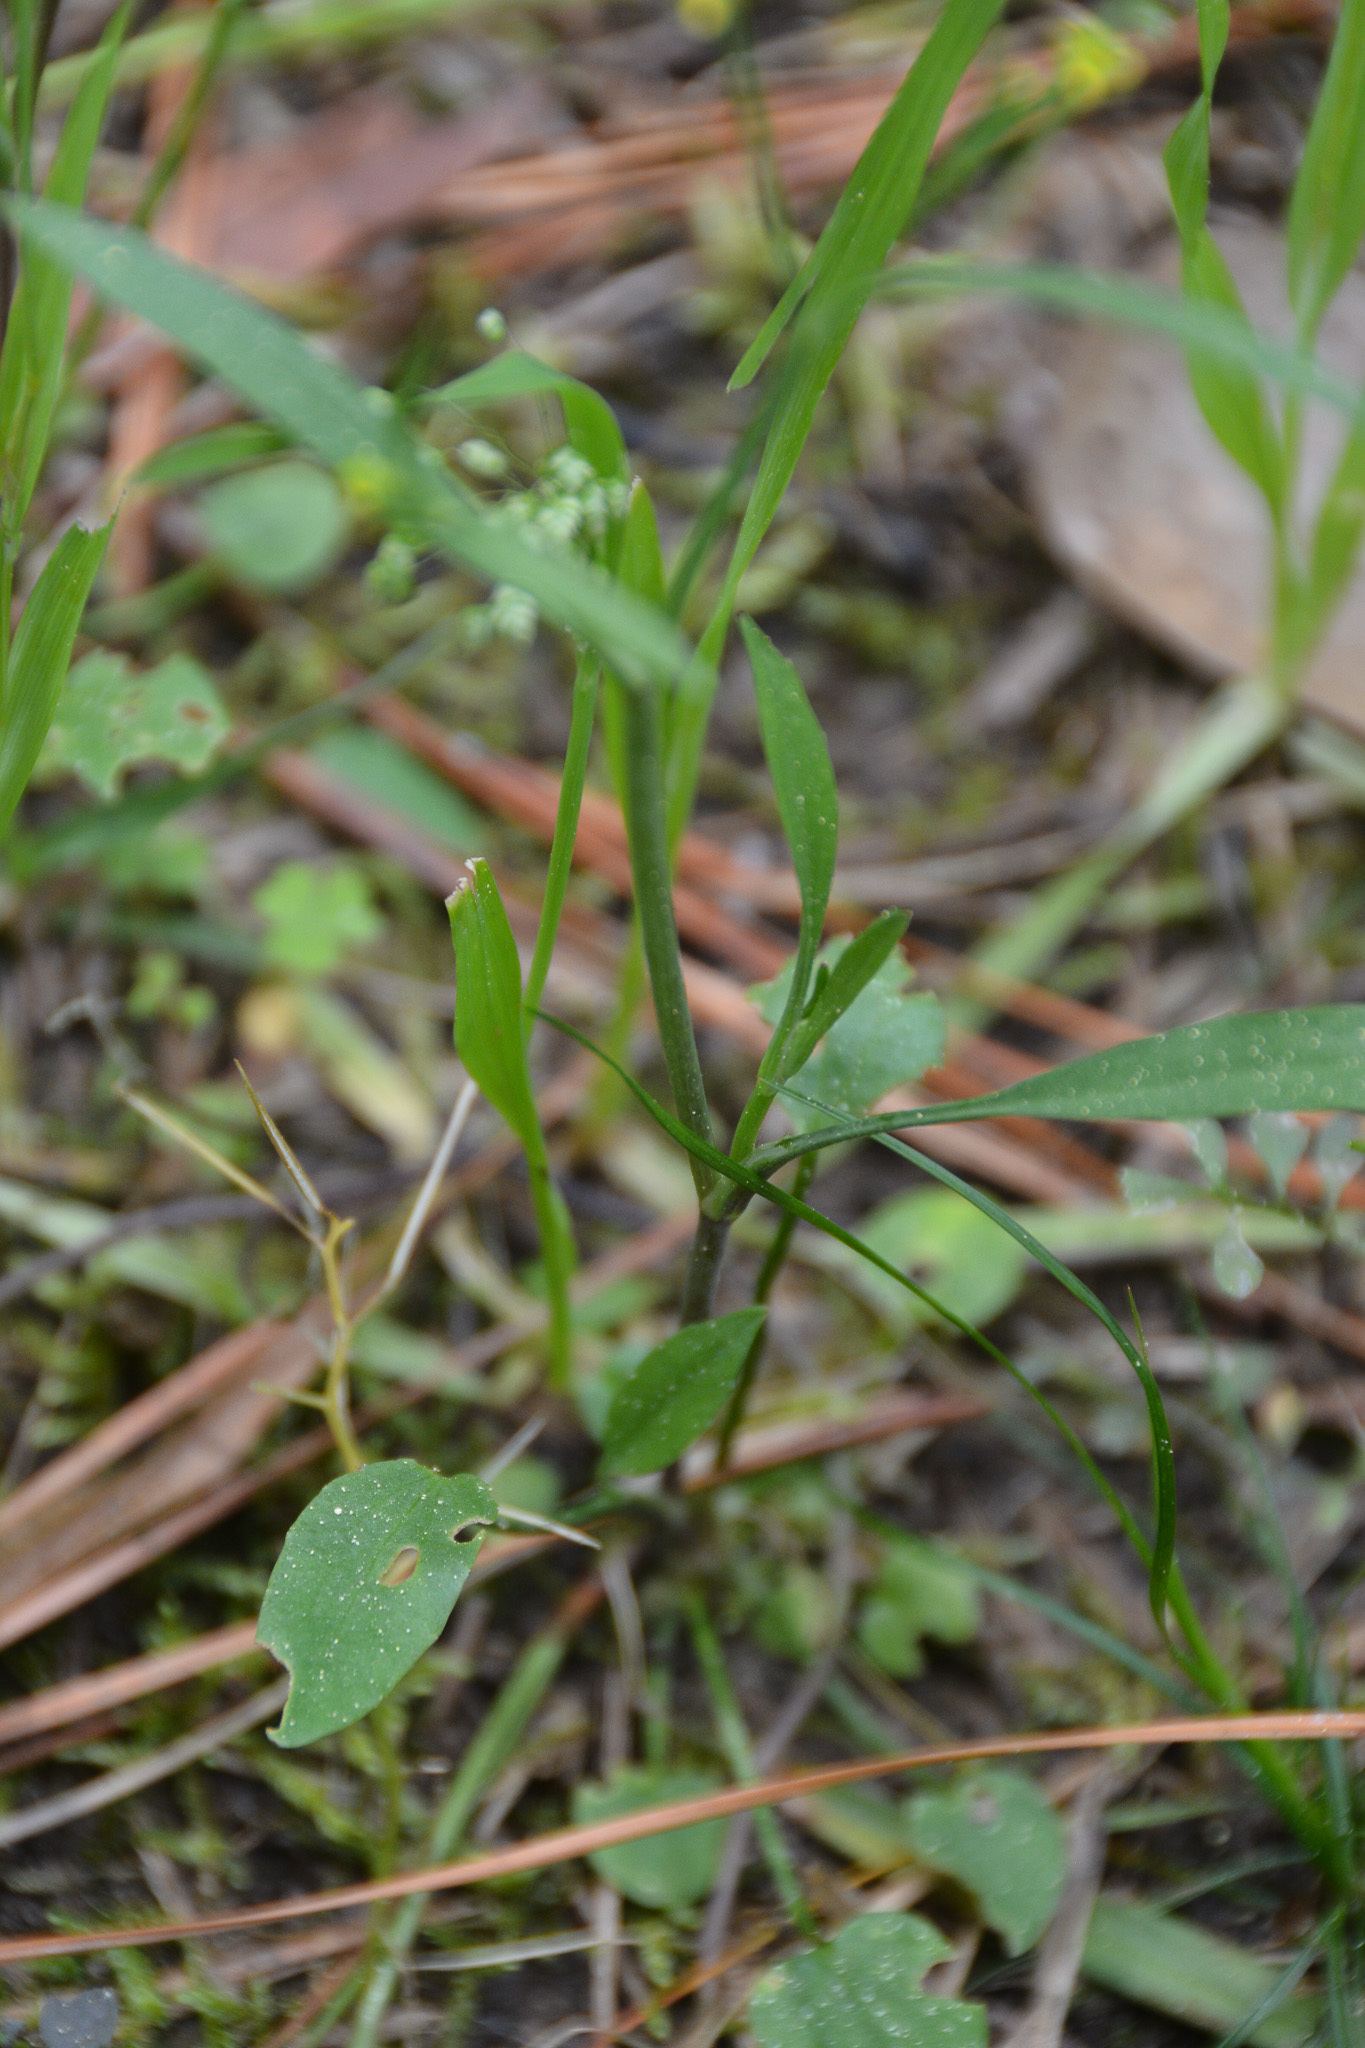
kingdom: Plantae
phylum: Tracheophyta
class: Magnoliopsida
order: Ranunculales
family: Ranunculaceae
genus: Ranunculus
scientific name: Ranunculus pusillus
